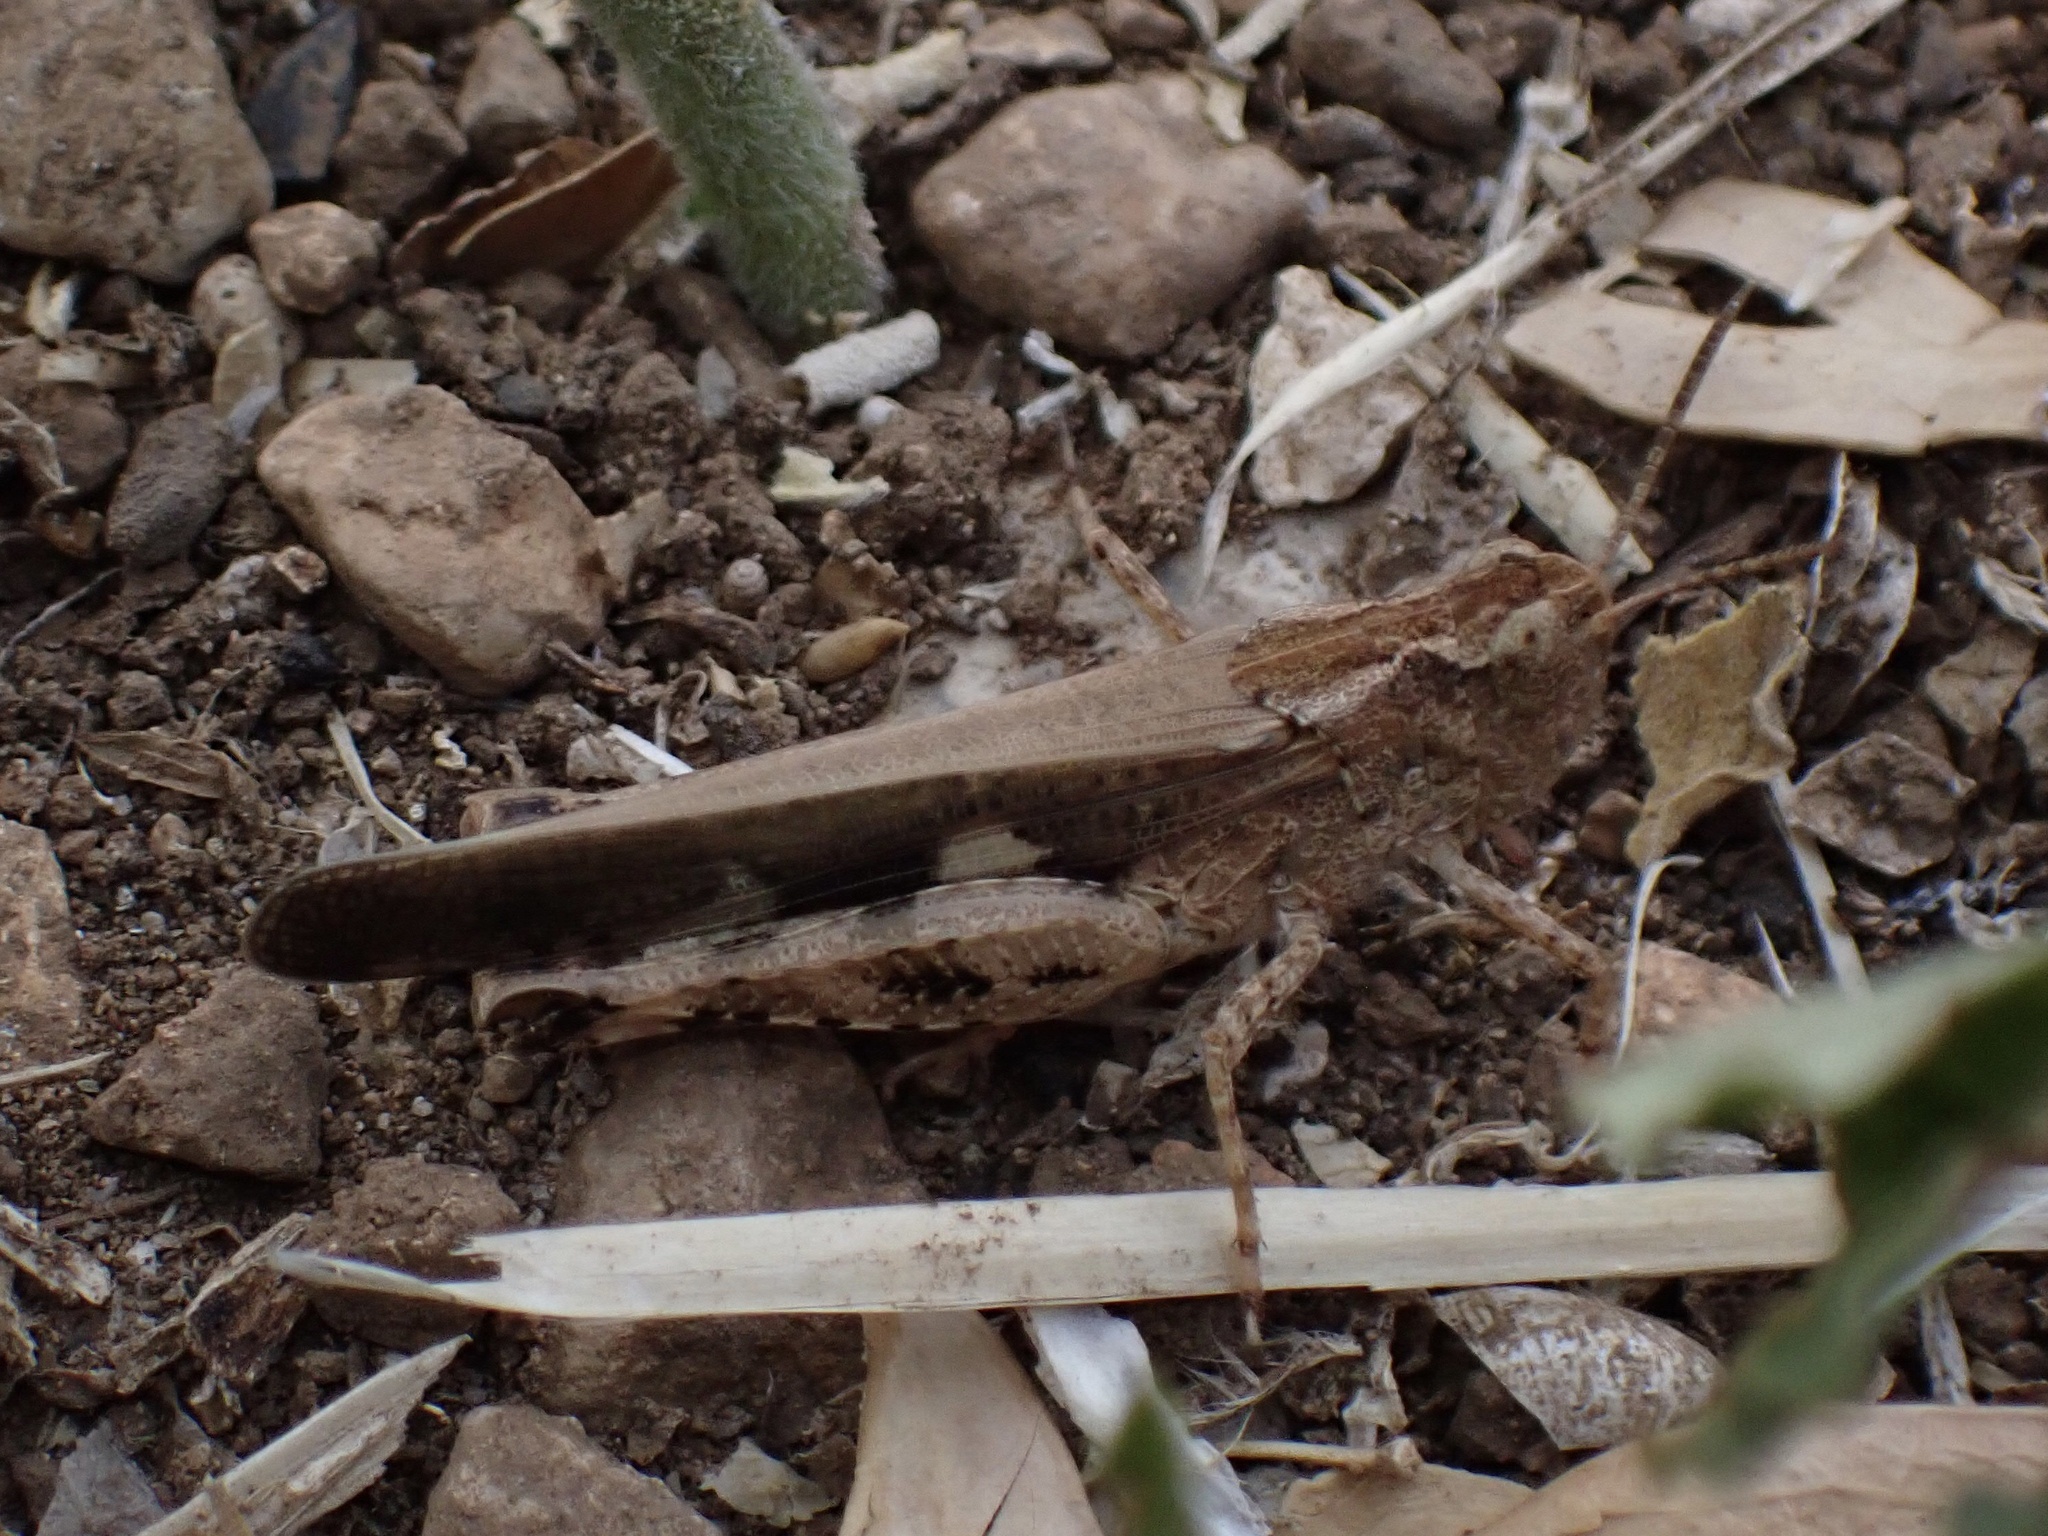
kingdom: Animalia
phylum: Arthropoda
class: Insecta
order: Orthoptera
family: Acrididae
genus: Aiolopus
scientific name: Aiolopus strepens
